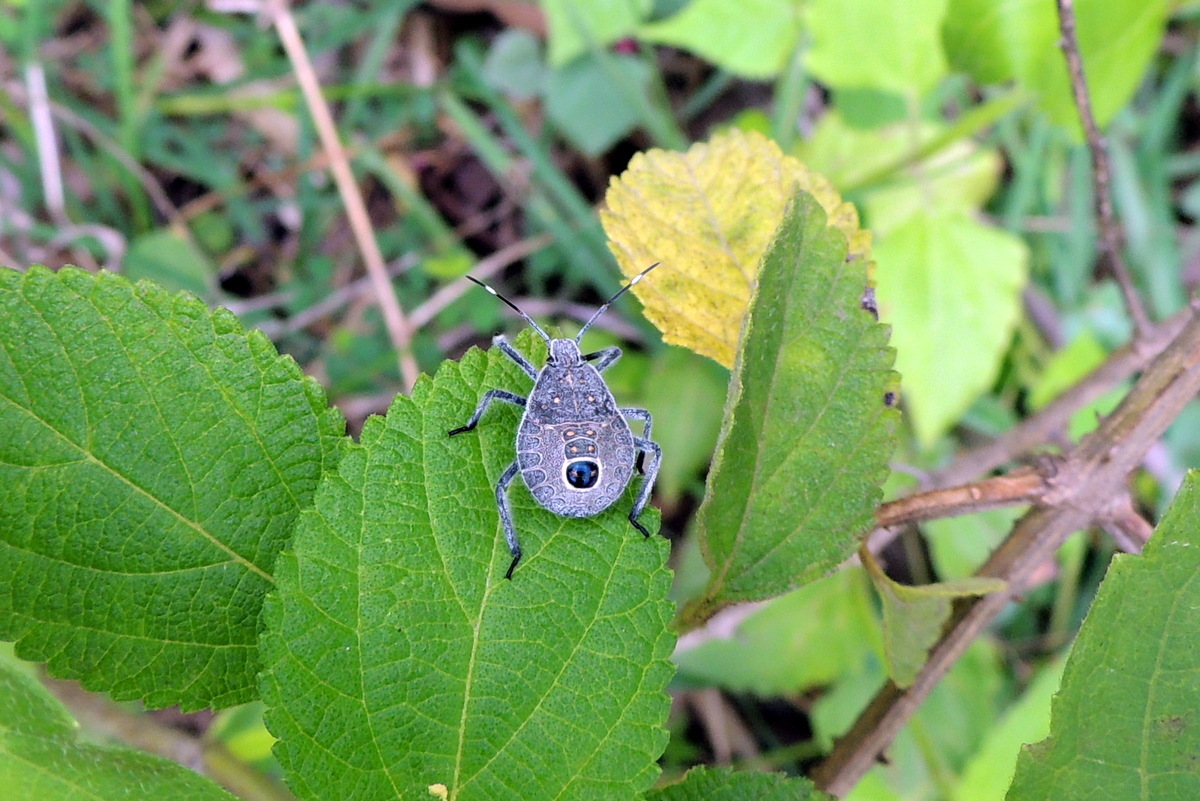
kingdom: Animalia
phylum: Arthropoda
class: Insecta
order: Hemiptera
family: Pentatomidae
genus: Erthesina
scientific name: Erthesina acuminata
